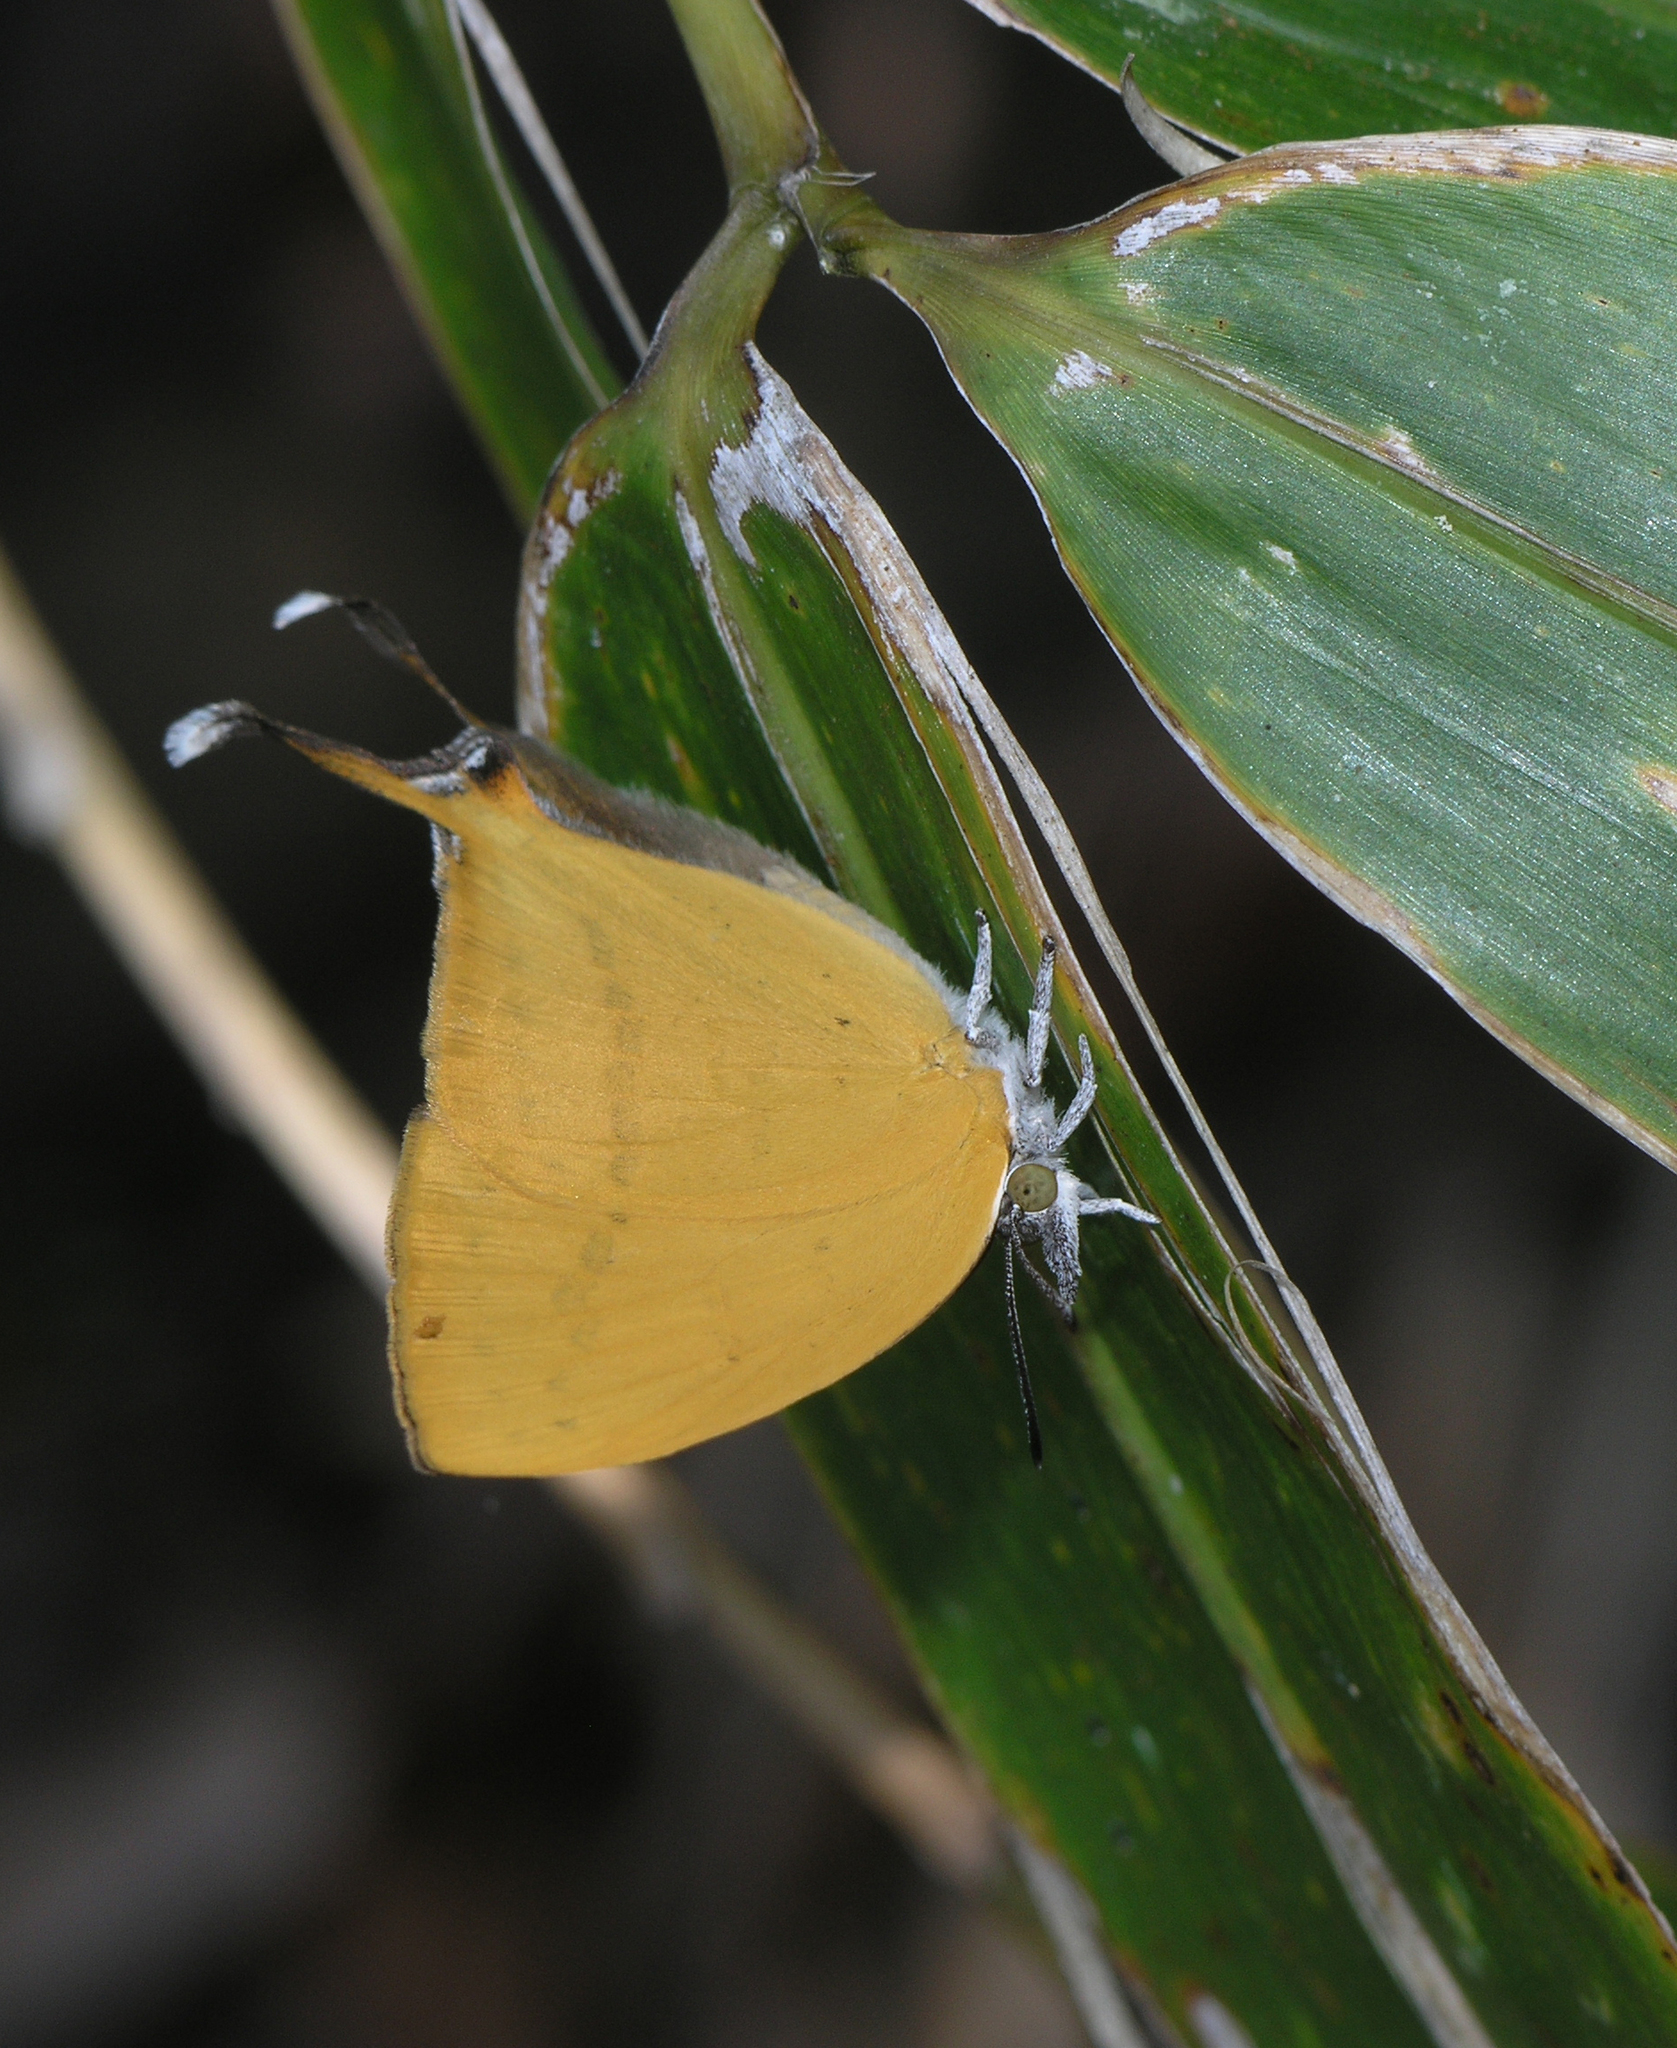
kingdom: Animalia
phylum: Arthropoda
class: Insecta
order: Lepidoptera
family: Lycaenidae
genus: Loxura
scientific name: Loxura atymnus
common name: Common yamfly
